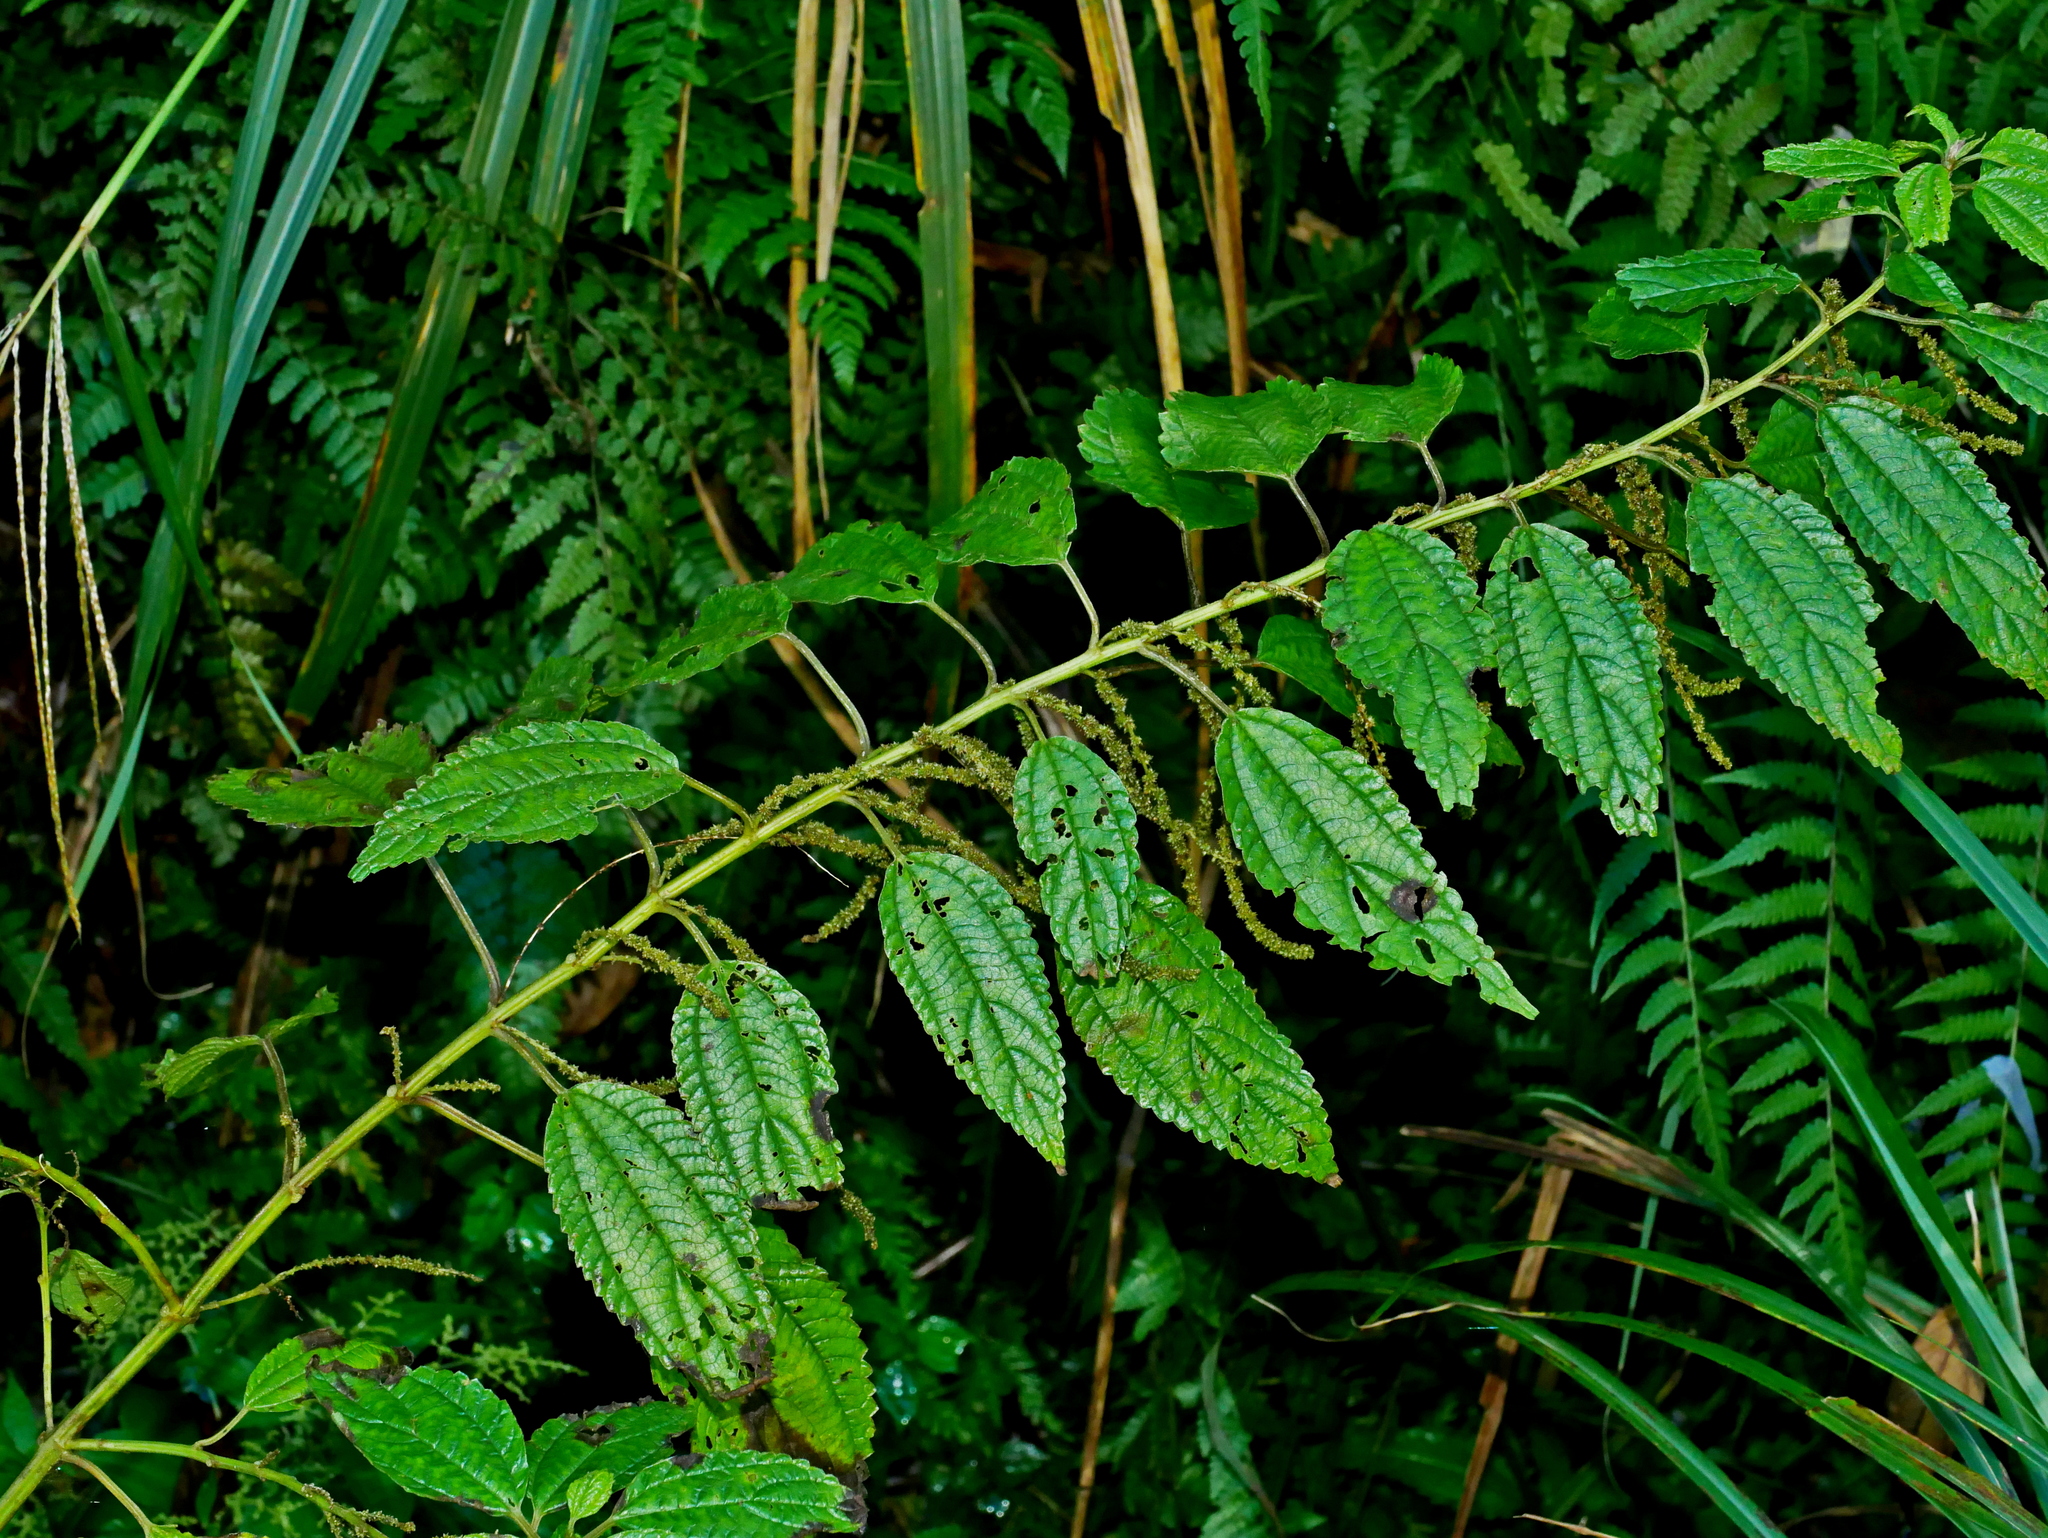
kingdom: Plantae
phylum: Tracheophyta
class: Magnoliopsida
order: Rosales
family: Urticaceae
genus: Boehmeria
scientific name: Boehmeria sieboldiana
